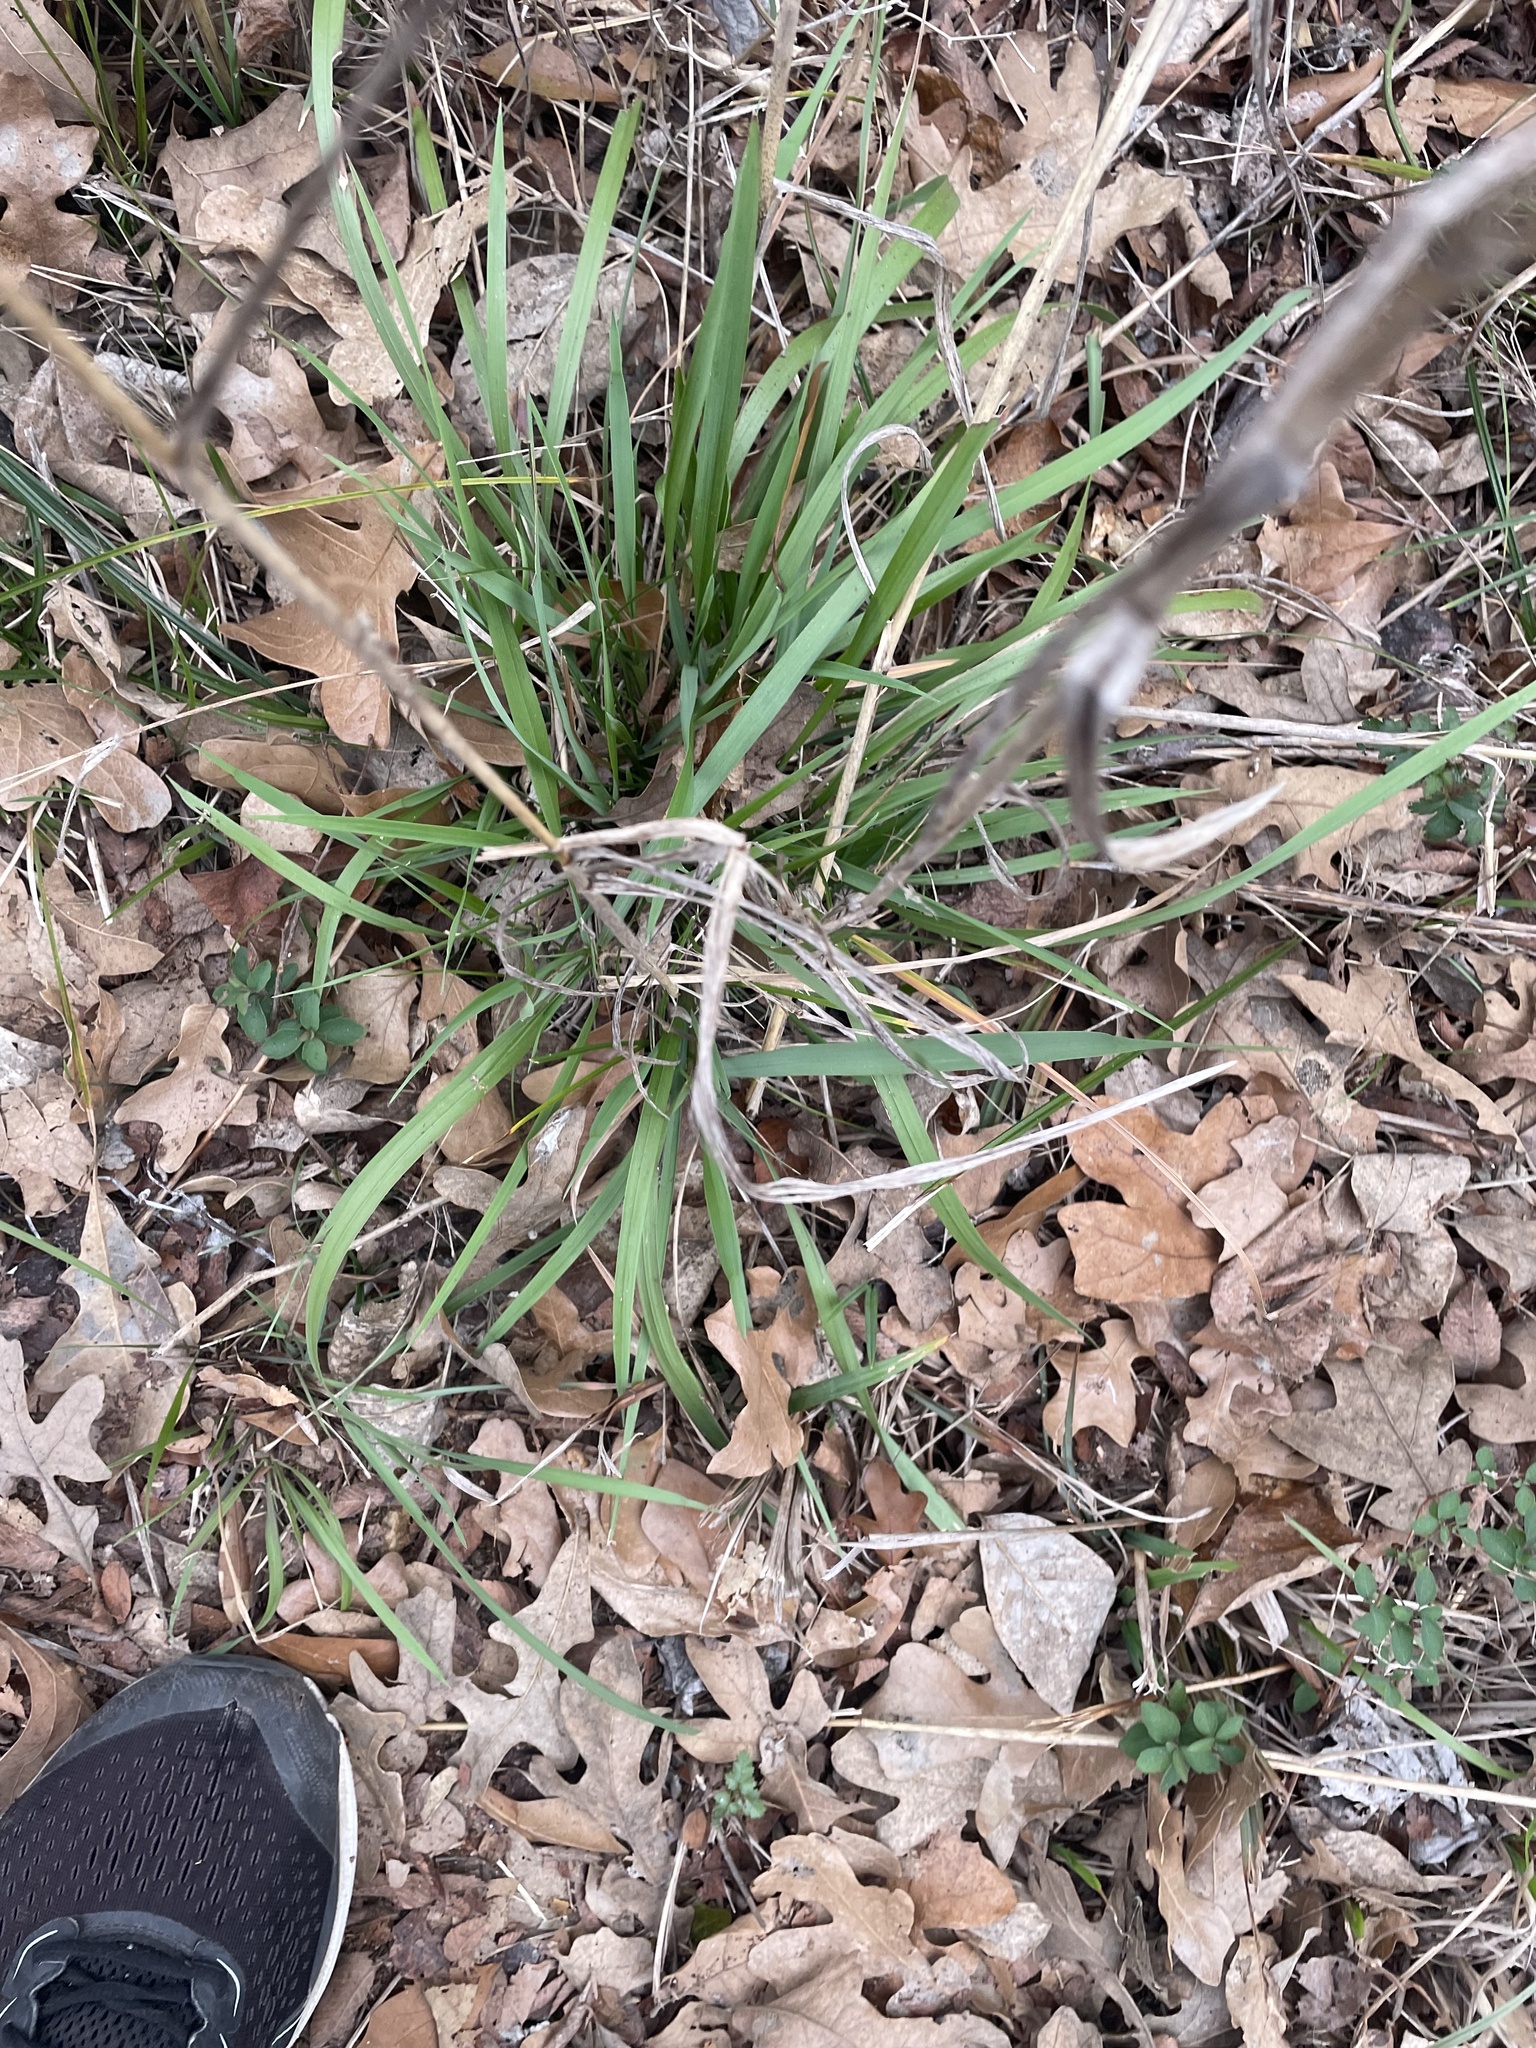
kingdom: Plantae
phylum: Tracheophyta
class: Liliopsida
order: Poales
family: Poaceae
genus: Elymus
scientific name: Elymus virginicus
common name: Common eastern wildrye
